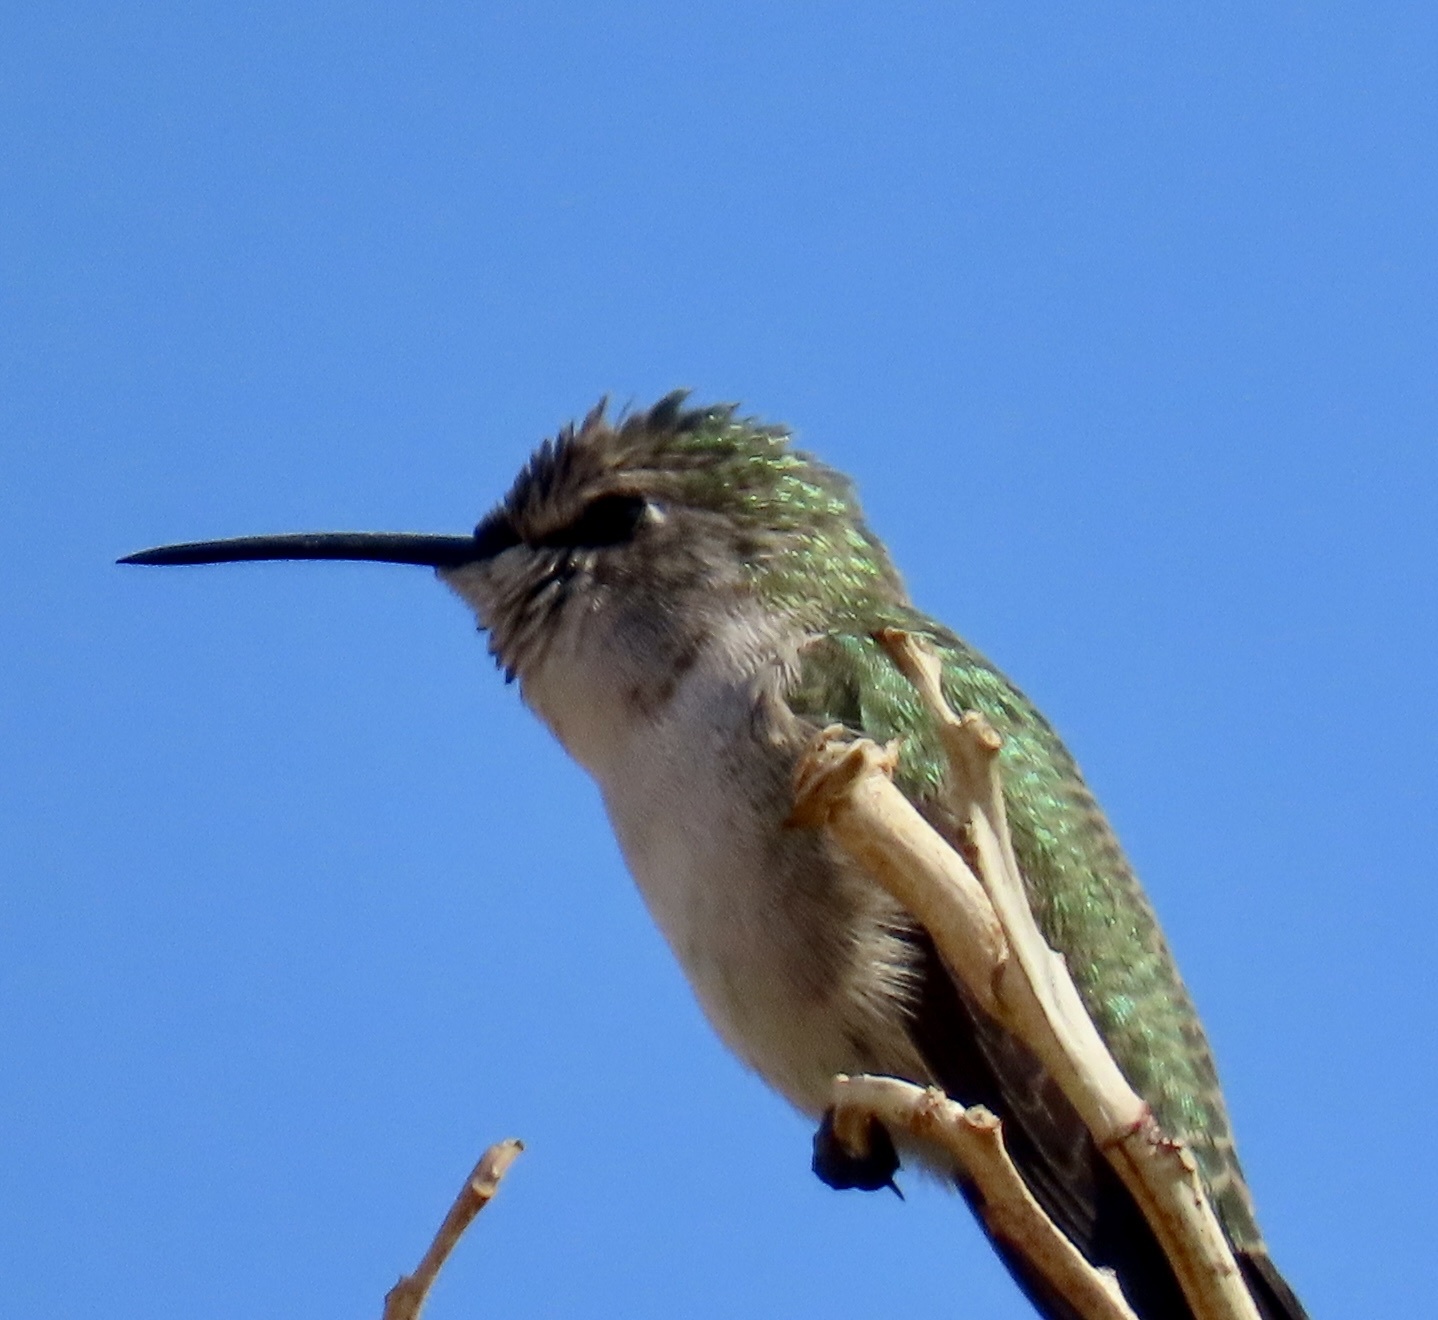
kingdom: Animalia
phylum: Chordata
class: Aves
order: Apodiformes
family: Trochilidae
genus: Calypte
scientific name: Calypte costae
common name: Costa's hummingbird
